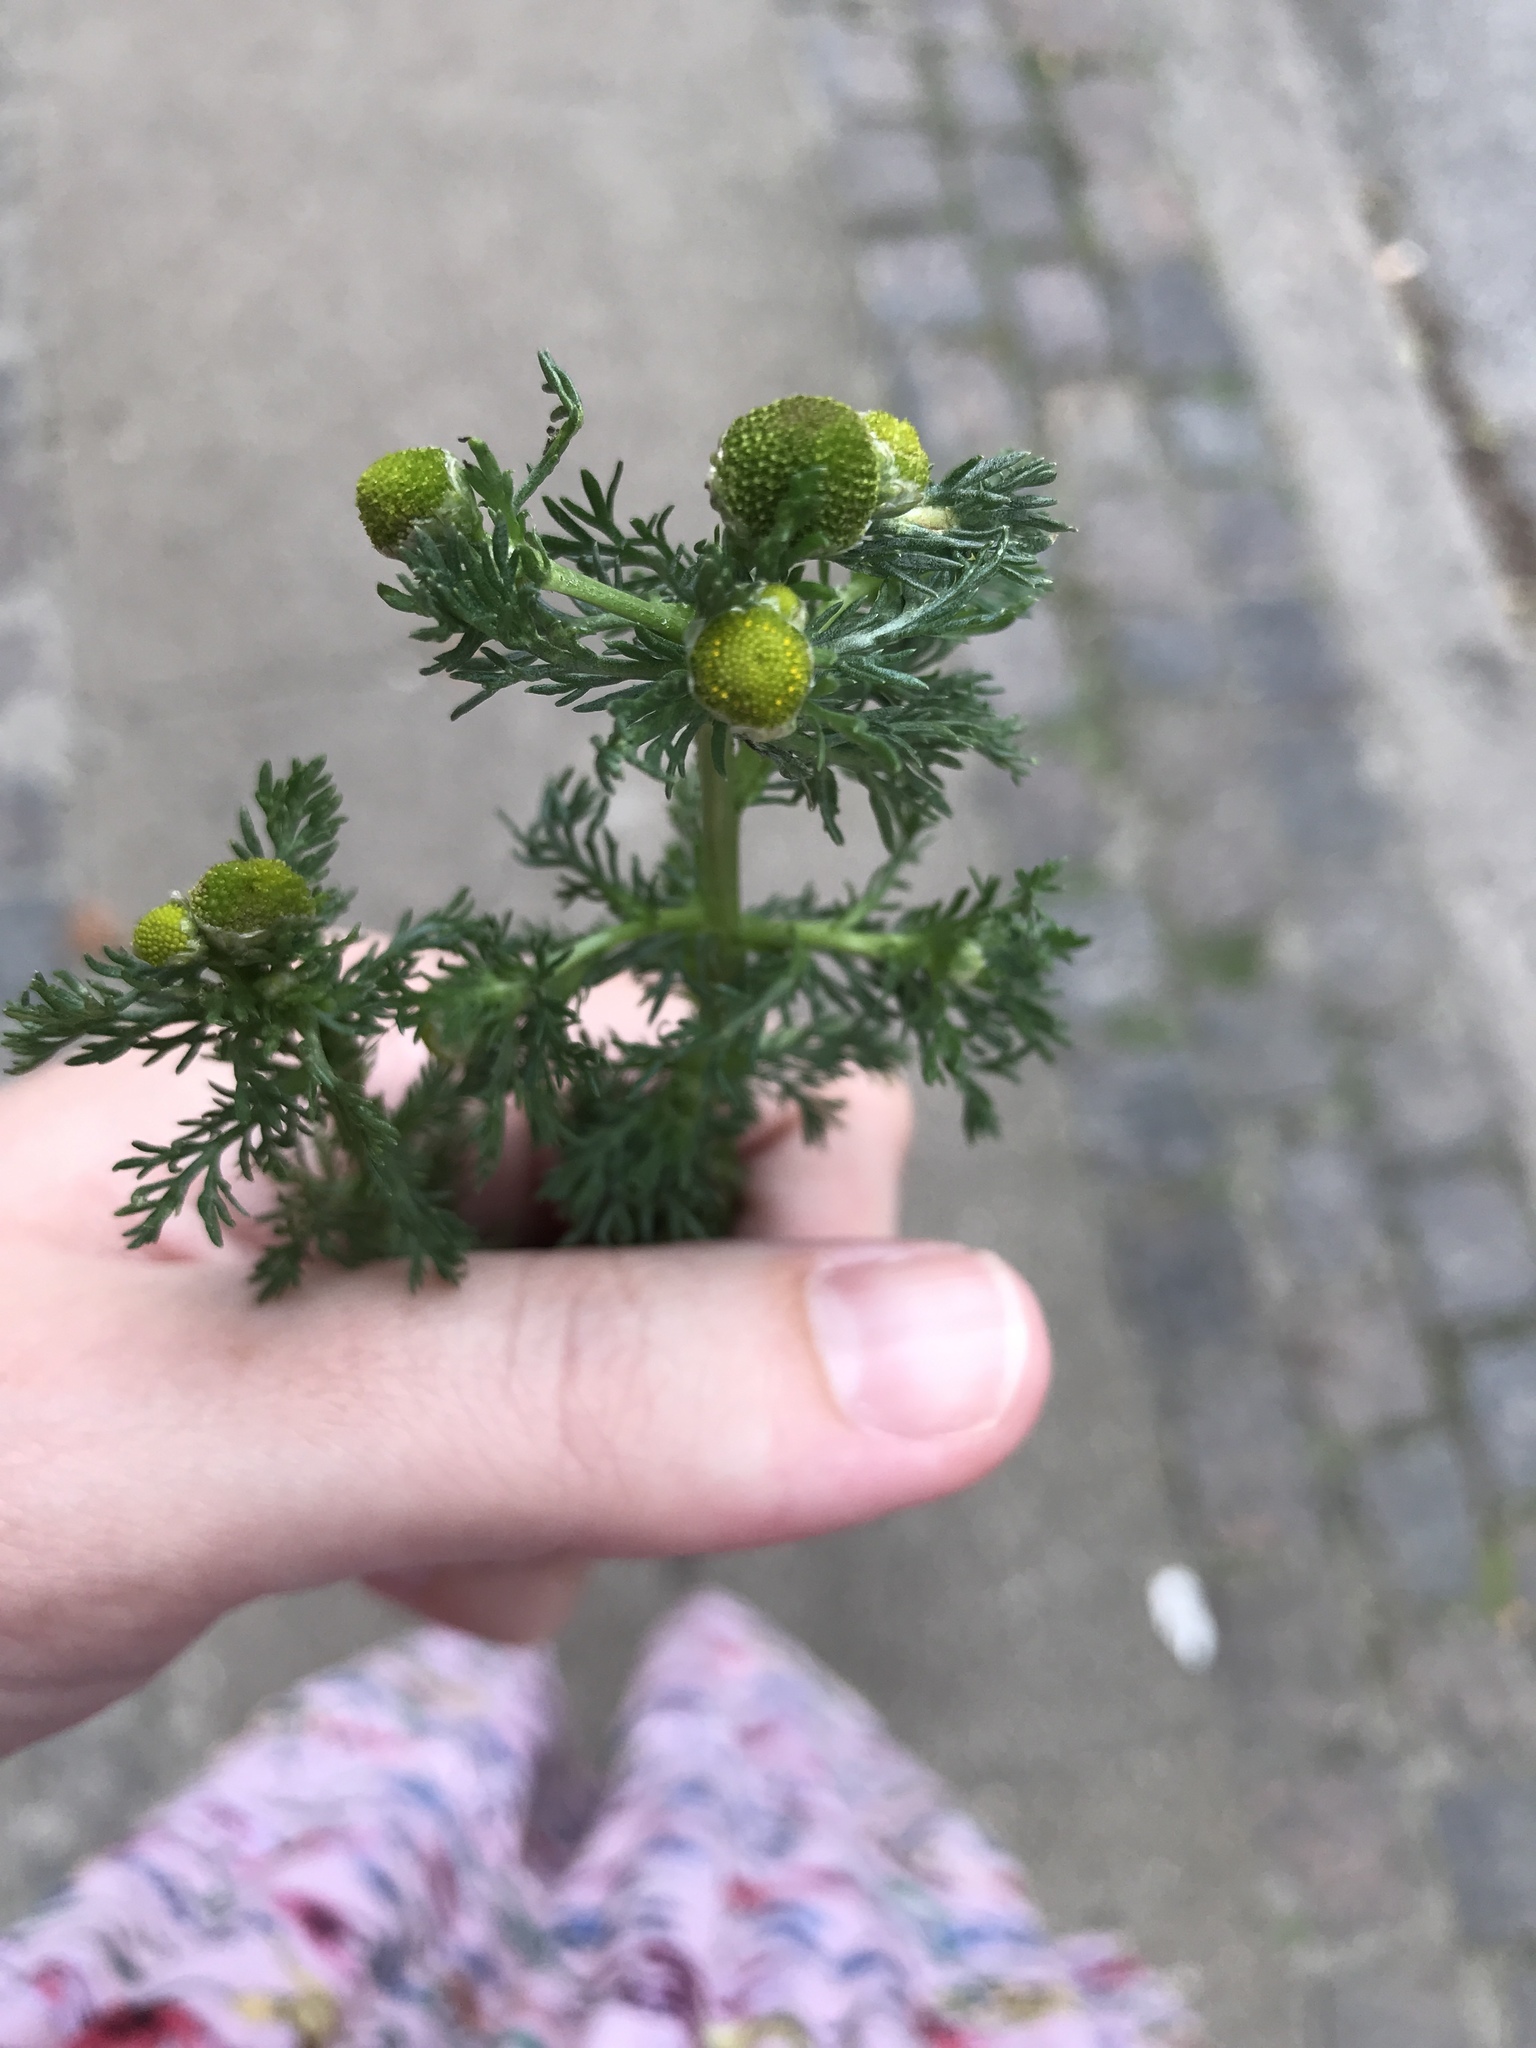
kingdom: Plantae
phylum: Tracheophyta
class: Magnoliopsida
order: Asterales
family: Asteraceae
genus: Matricaria
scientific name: Matricaria discoidea
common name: Disc mayweed
